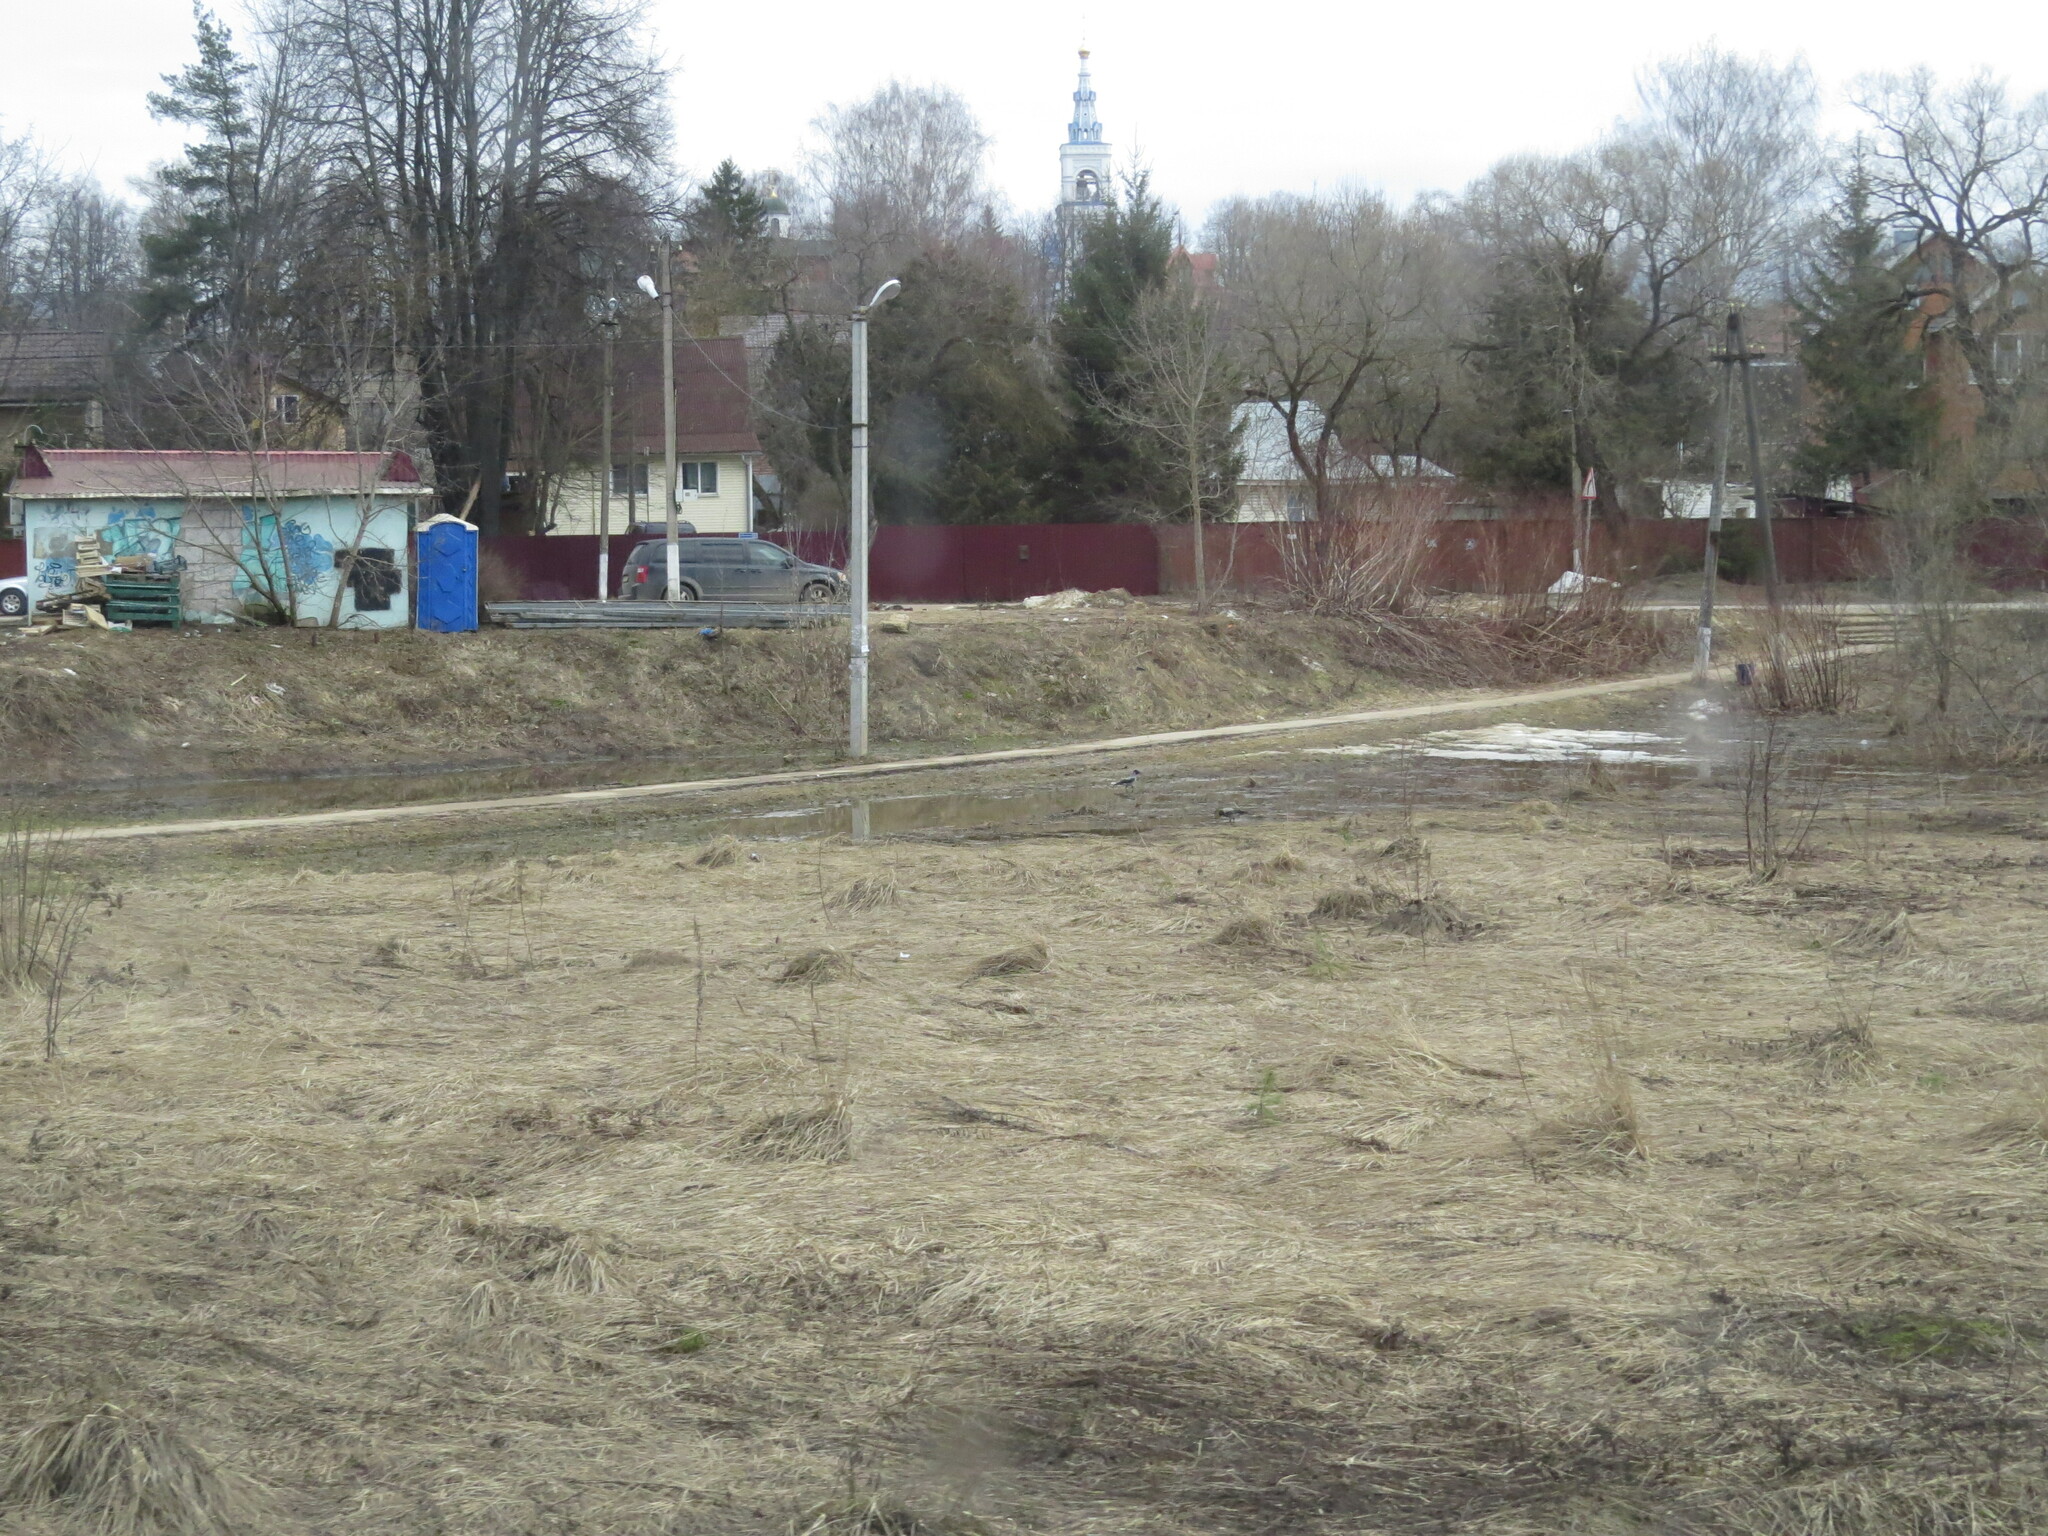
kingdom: Animalia
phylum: Chordata
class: Aves
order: Passeriformes
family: Corvidae
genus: Corvus
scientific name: Corvus cornix
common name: Hooded crow
